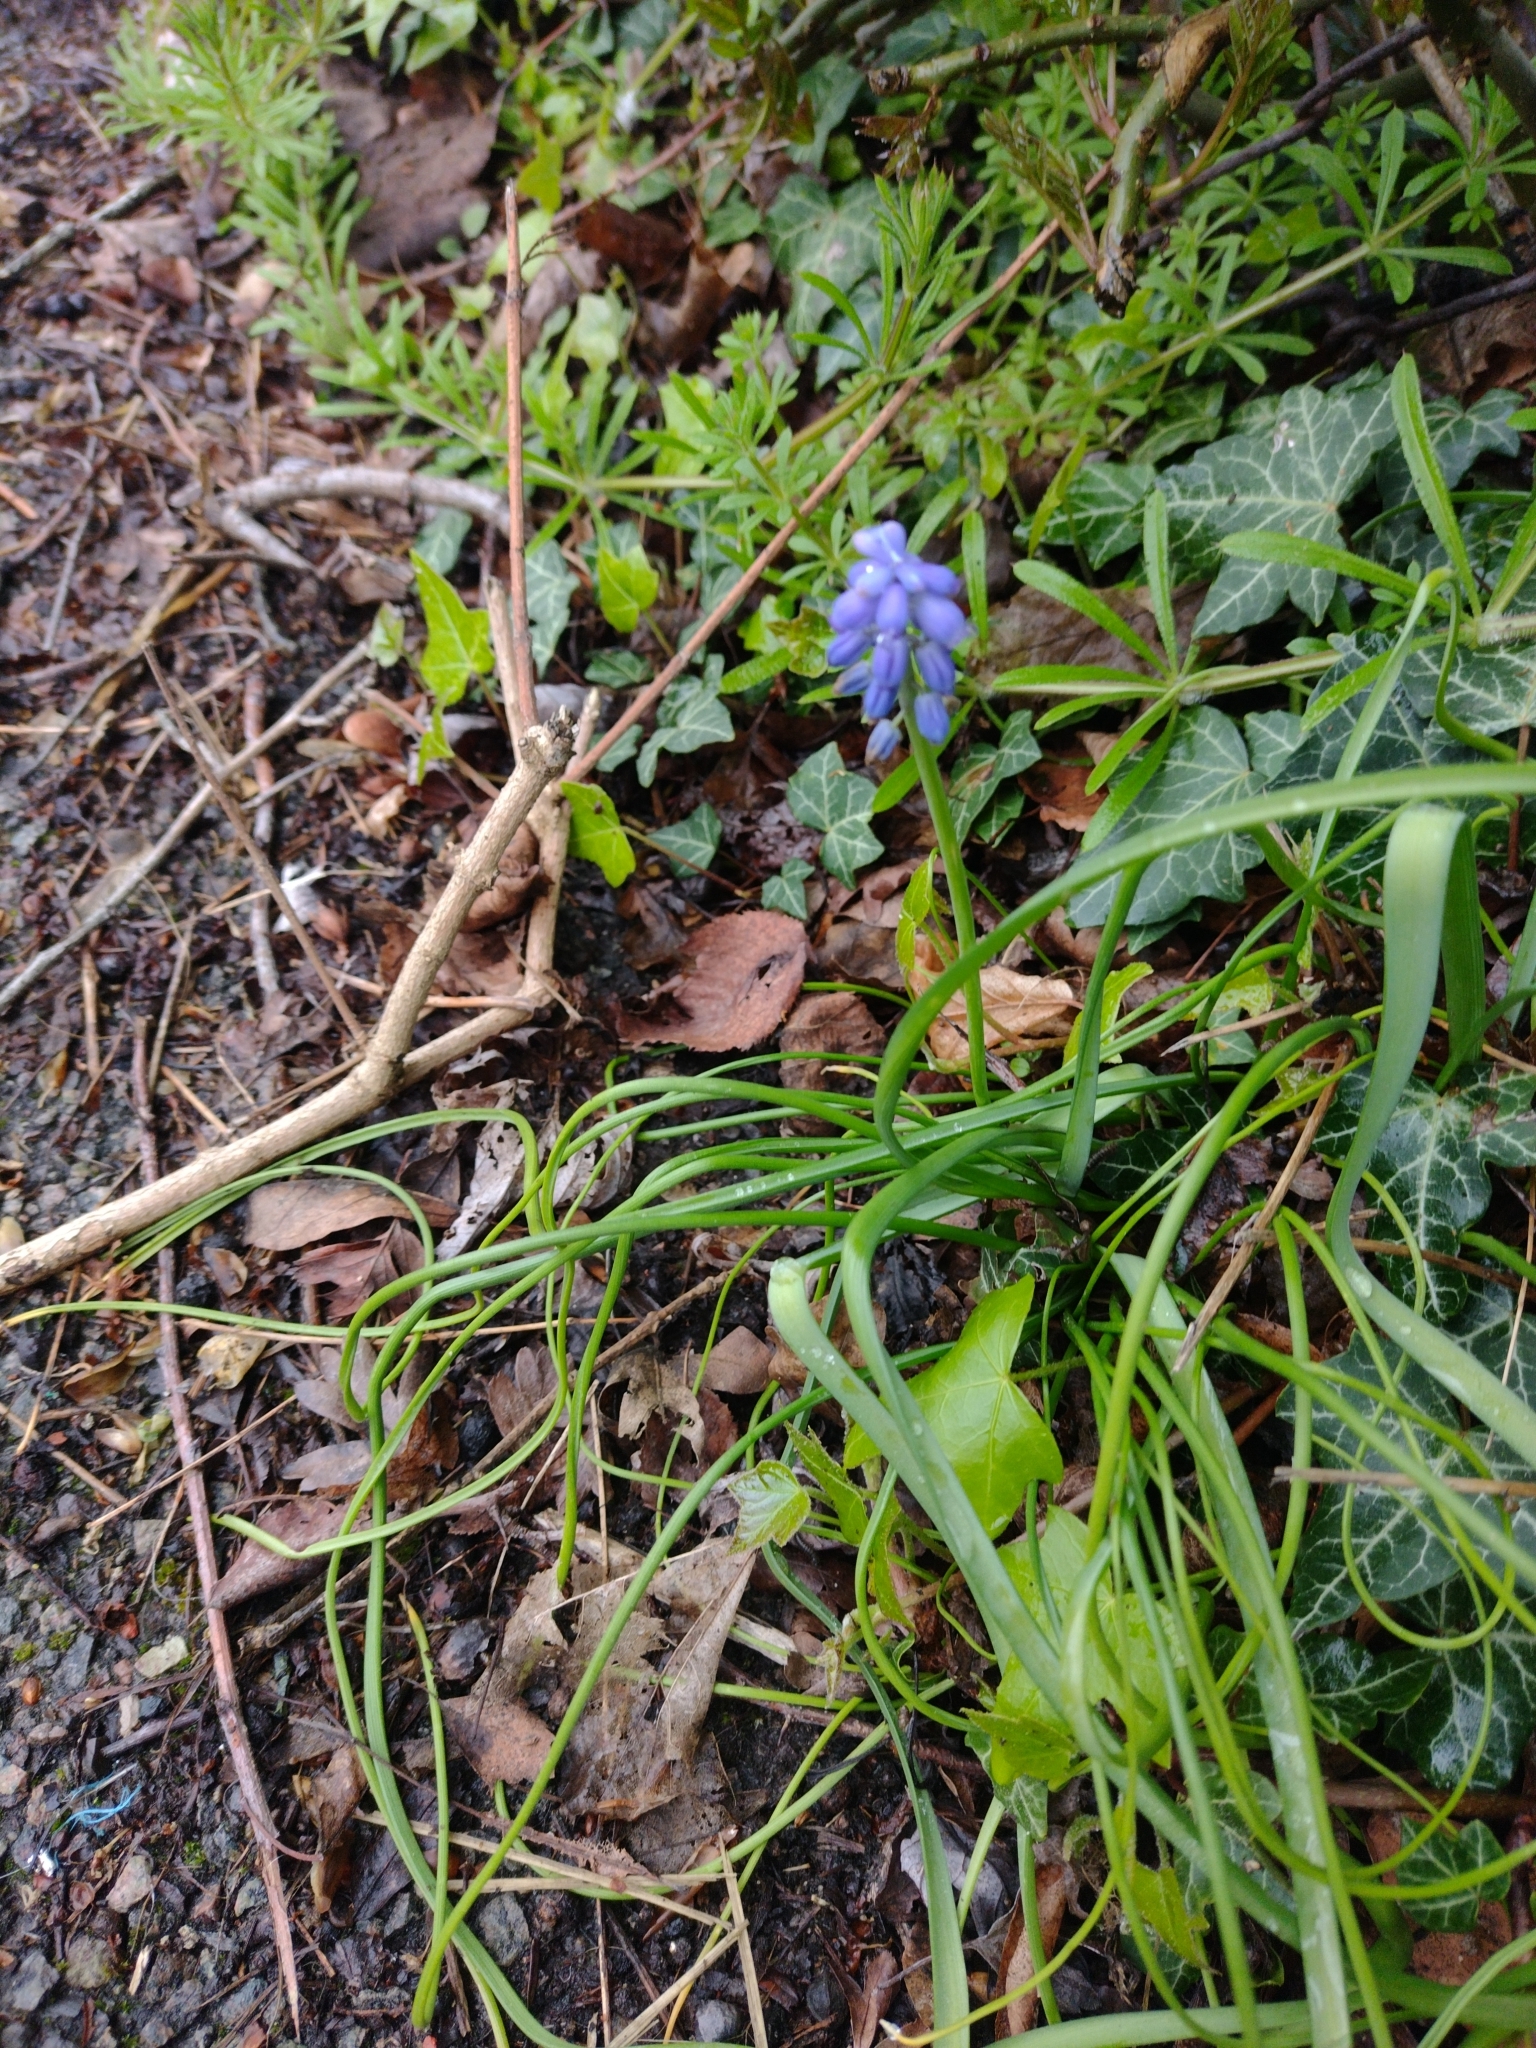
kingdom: Plantae
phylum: Tracheophyta
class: Liliopsida
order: Asparagales
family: Asparagaceae
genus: Muscari
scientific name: Muscari armeniacum
